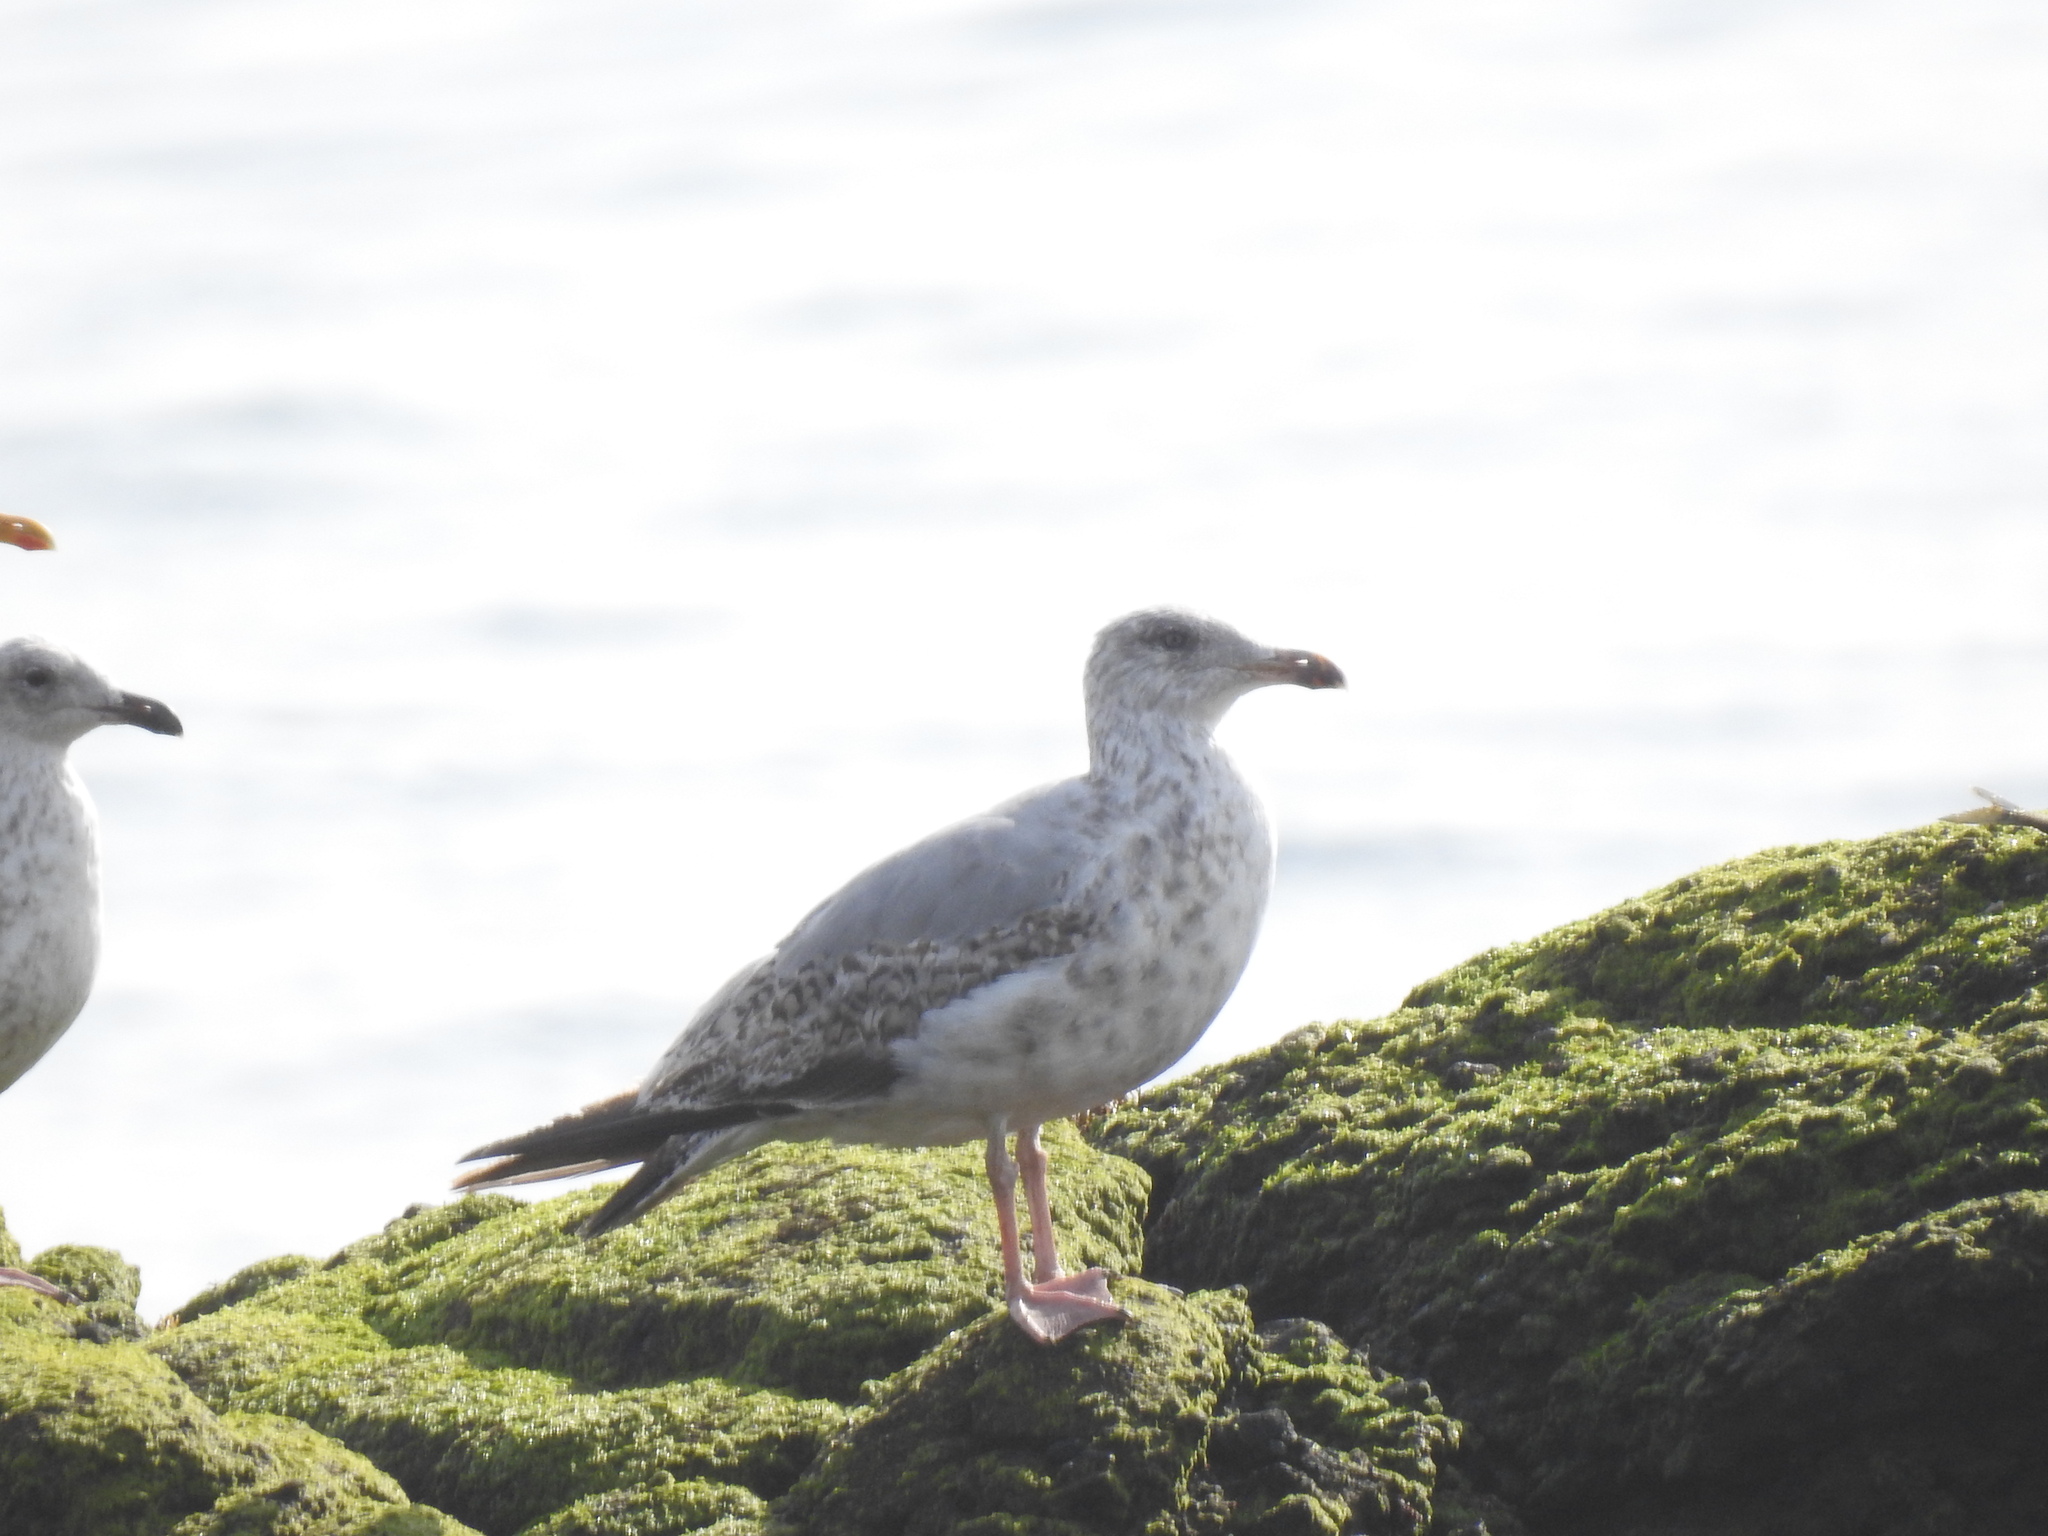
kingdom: Animalia
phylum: Chordata
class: Aves
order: Charadriiformes
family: Laridae
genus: Larus
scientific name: Larus argentatus
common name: Herring gull
